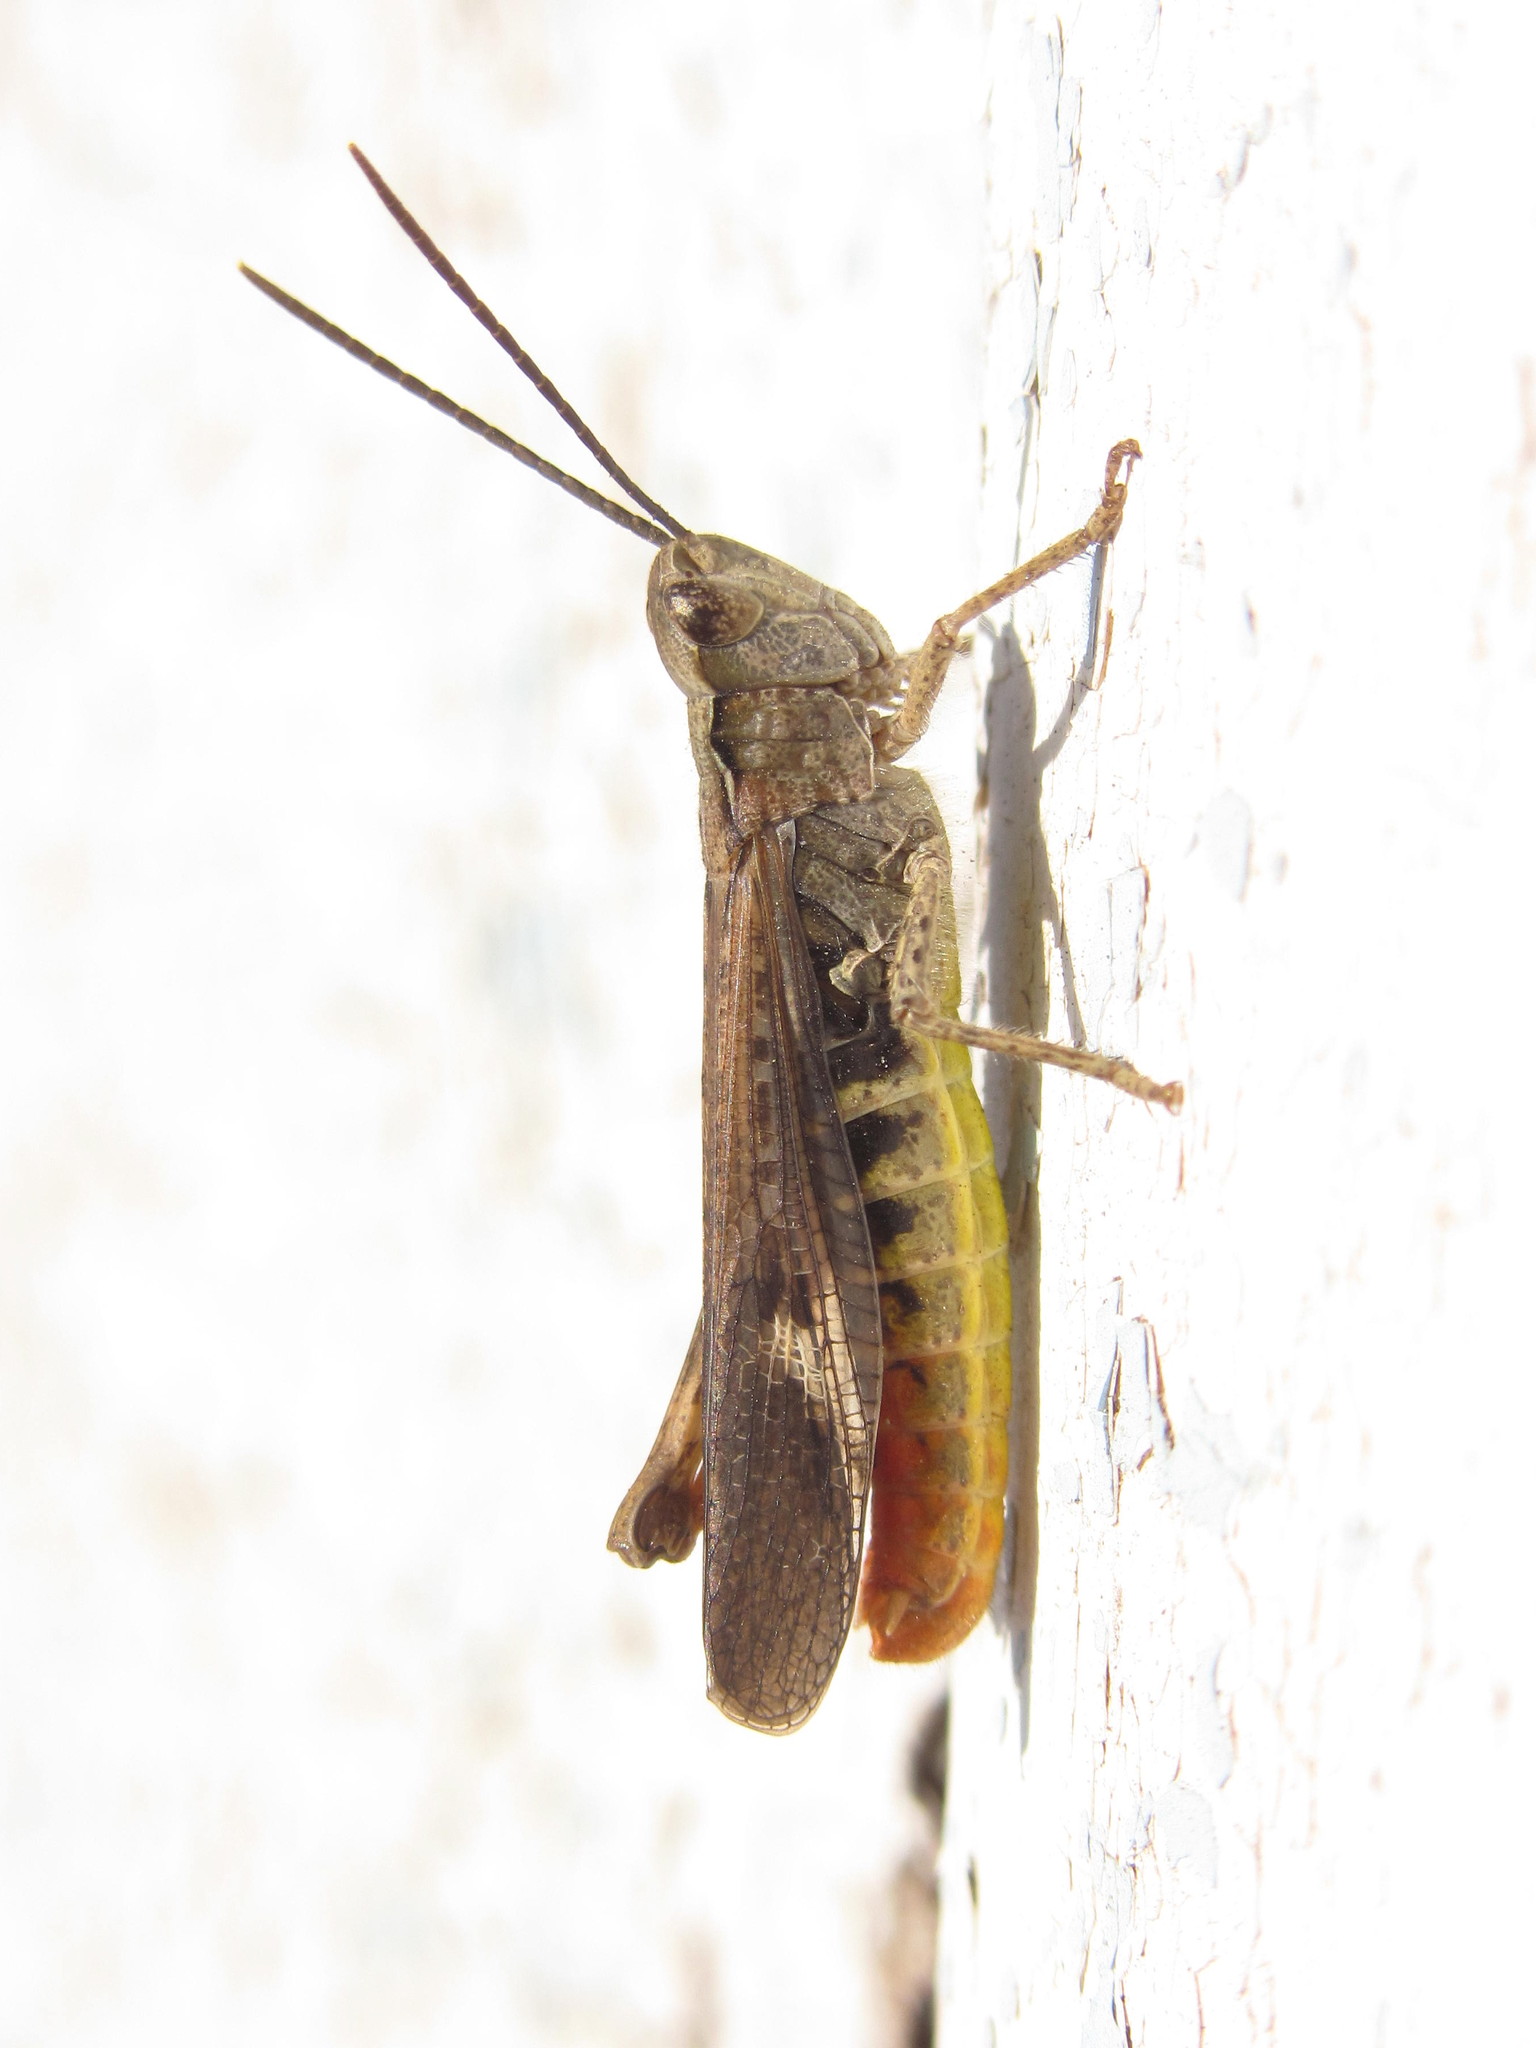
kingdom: Animalia
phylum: Arthropoda
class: Insecta
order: Orthoptera
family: Acrididae
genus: Chorthippus
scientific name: Chorthippus brunneus
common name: Field grasshopper
